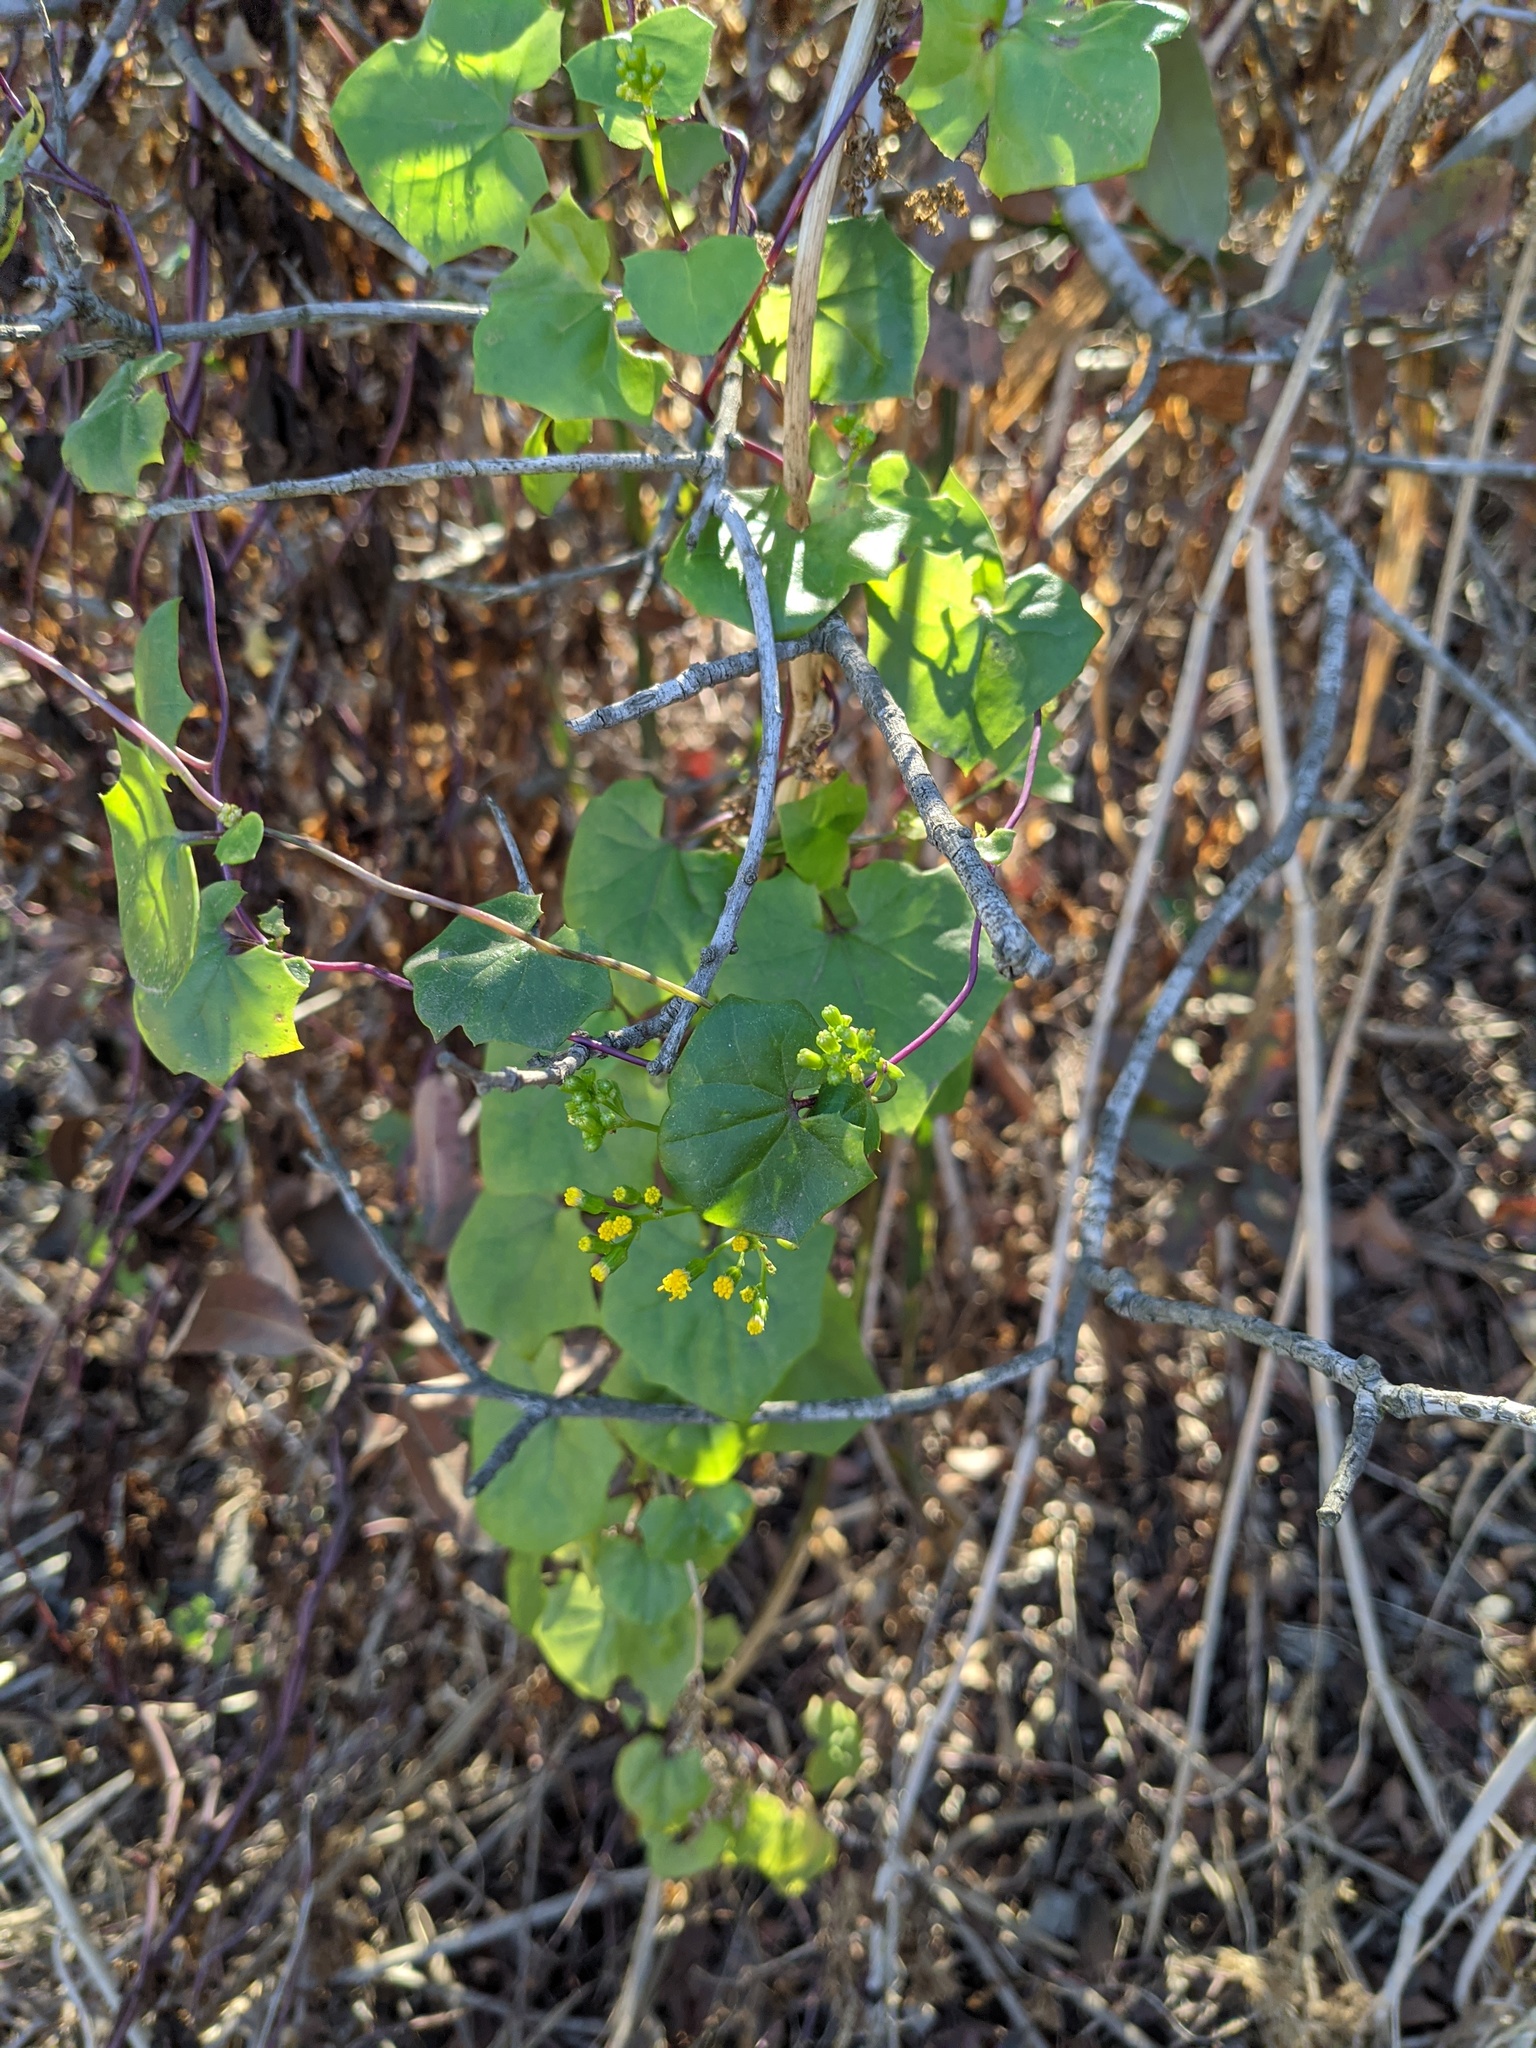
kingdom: Plantae
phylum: Tracheophyta
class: Magnoliopsida
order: Asterales
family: Asteraceae
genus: Delairea
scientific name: Delairea odorata
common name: Cape-ivy
